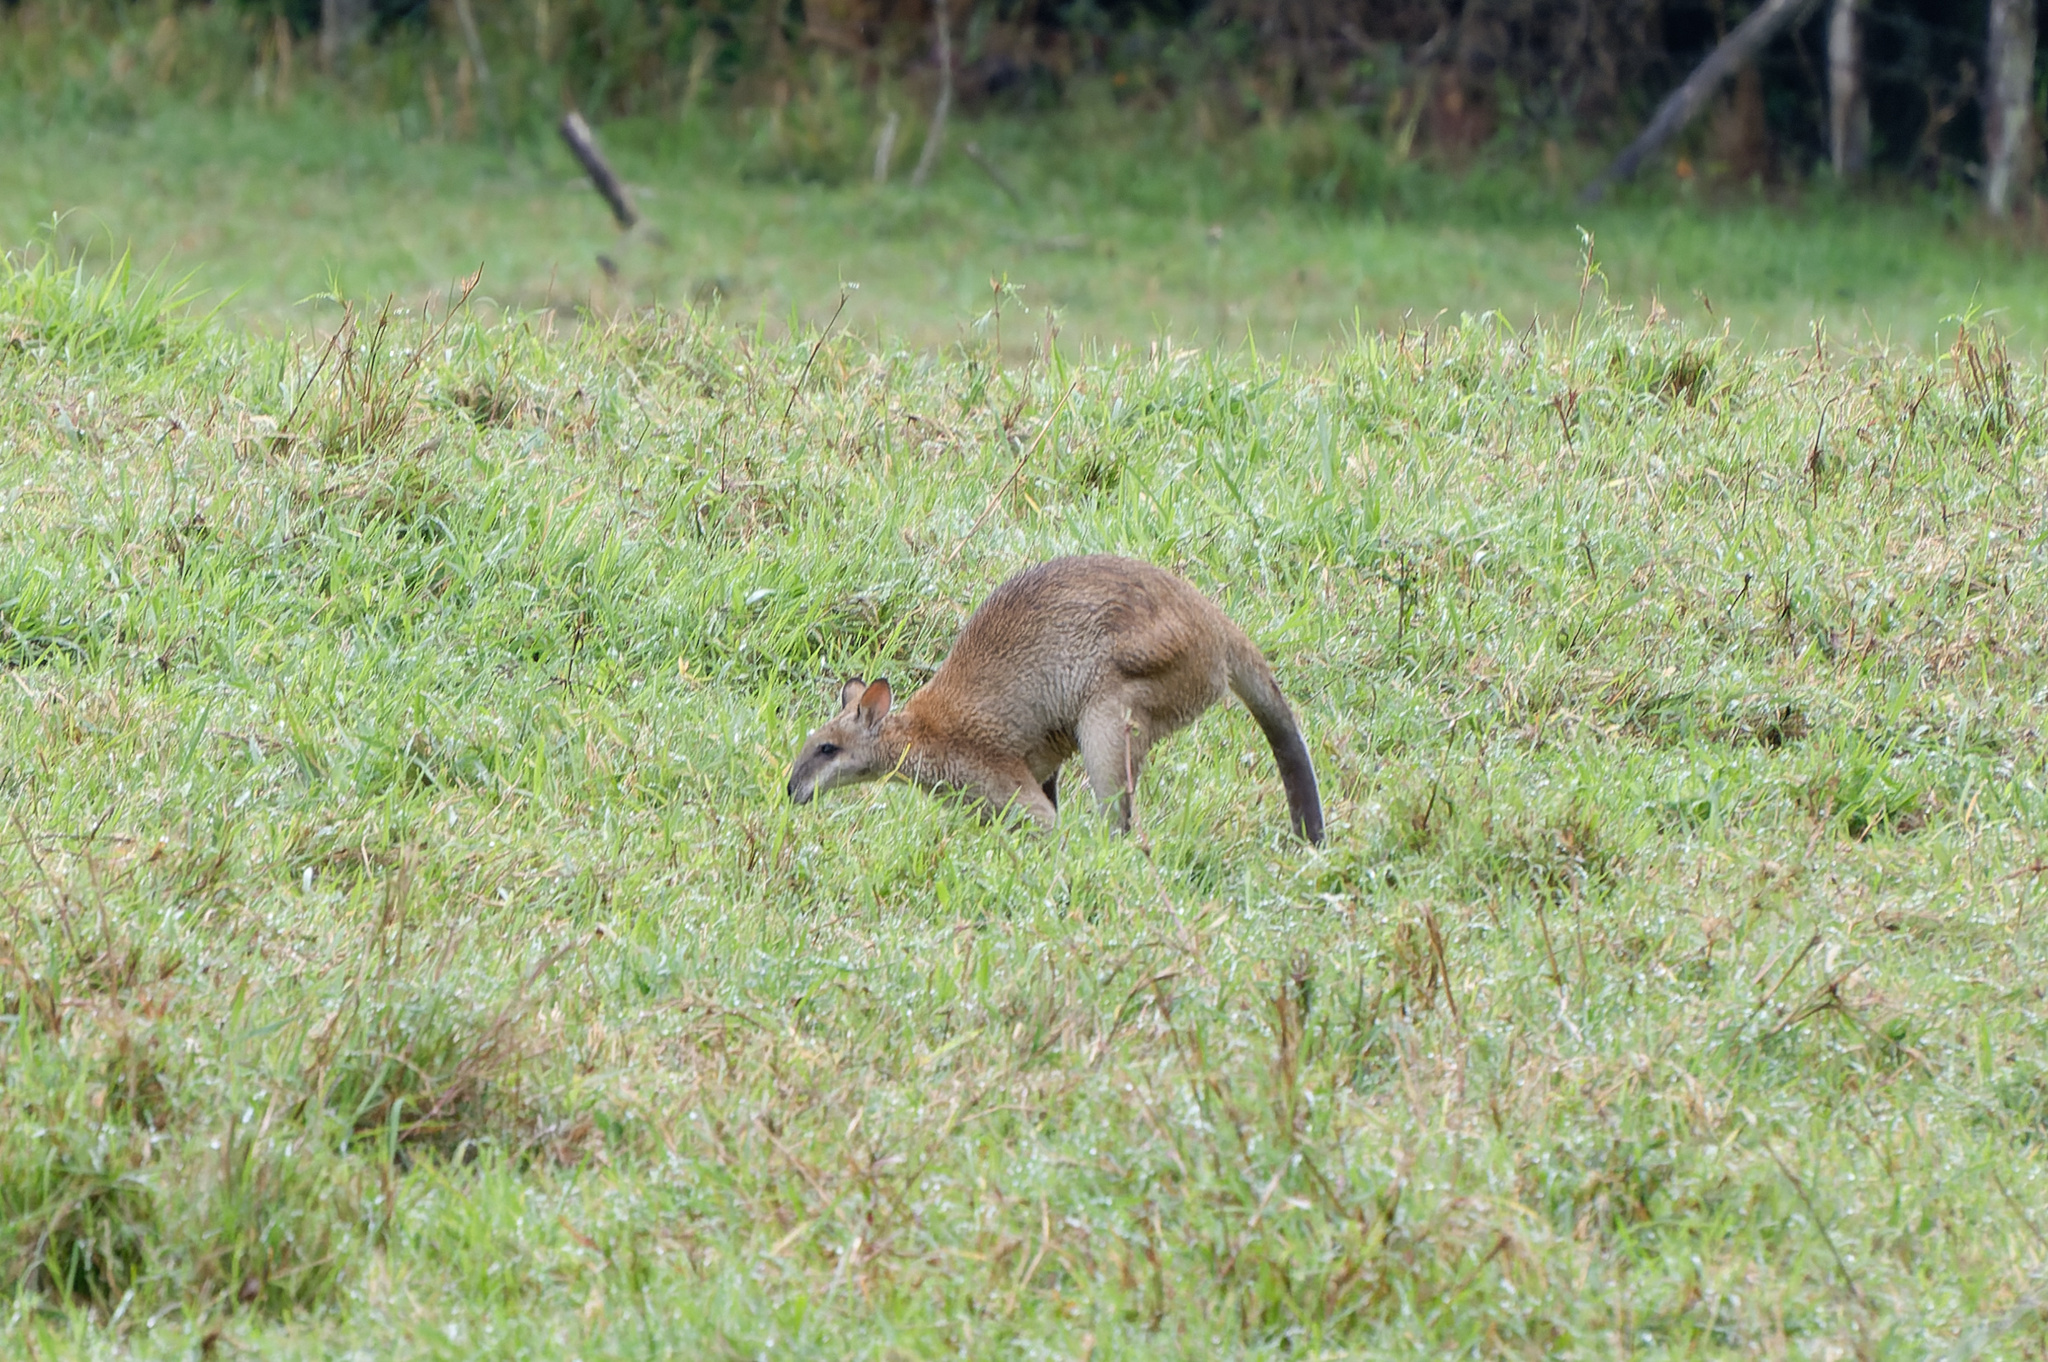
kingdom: Animalia
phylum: Chordata
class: Mammalia
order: Diprotodontia
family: Macropodidae
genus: Macropus
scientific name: Macropus agilis
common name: Agile wallaby
